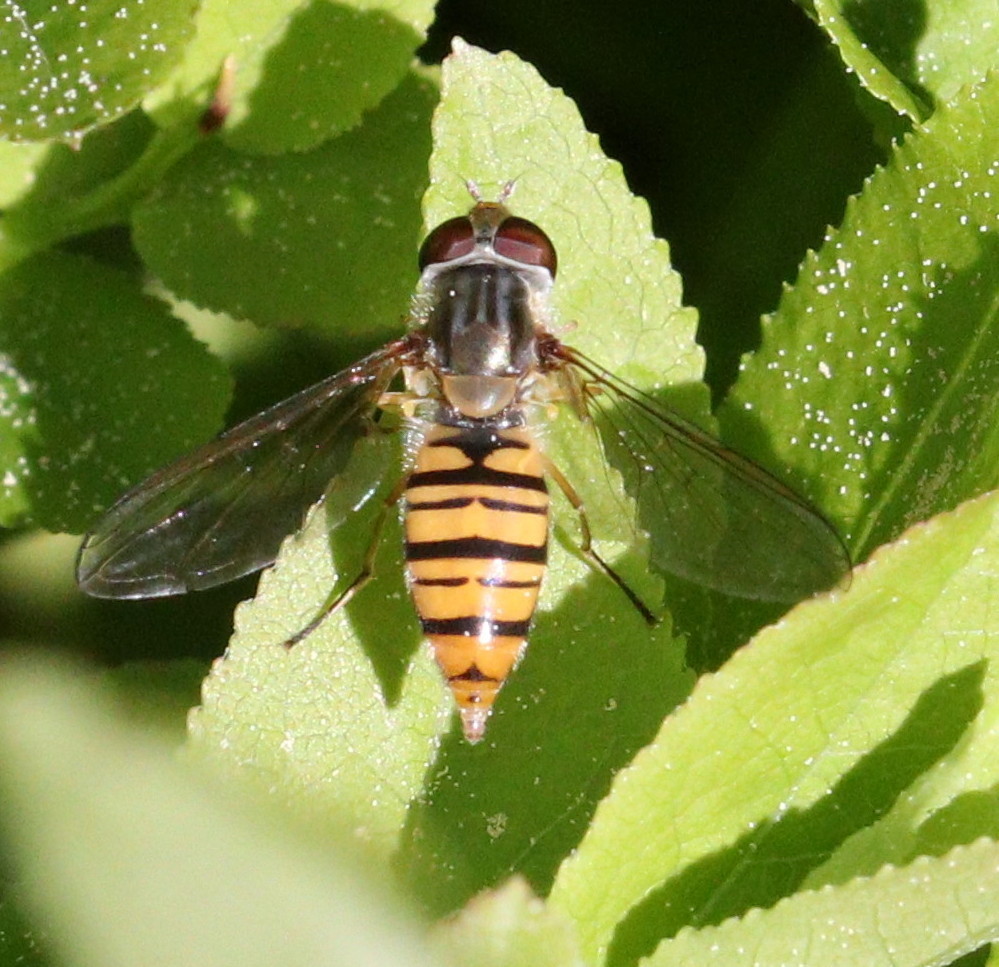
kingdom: Animalia
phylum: Arthropoda
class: Insecta
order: Diptera
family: Syrphidae
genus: Episyrphus
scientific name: Episyrphus balteatus
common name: Marmalade hoverfly
